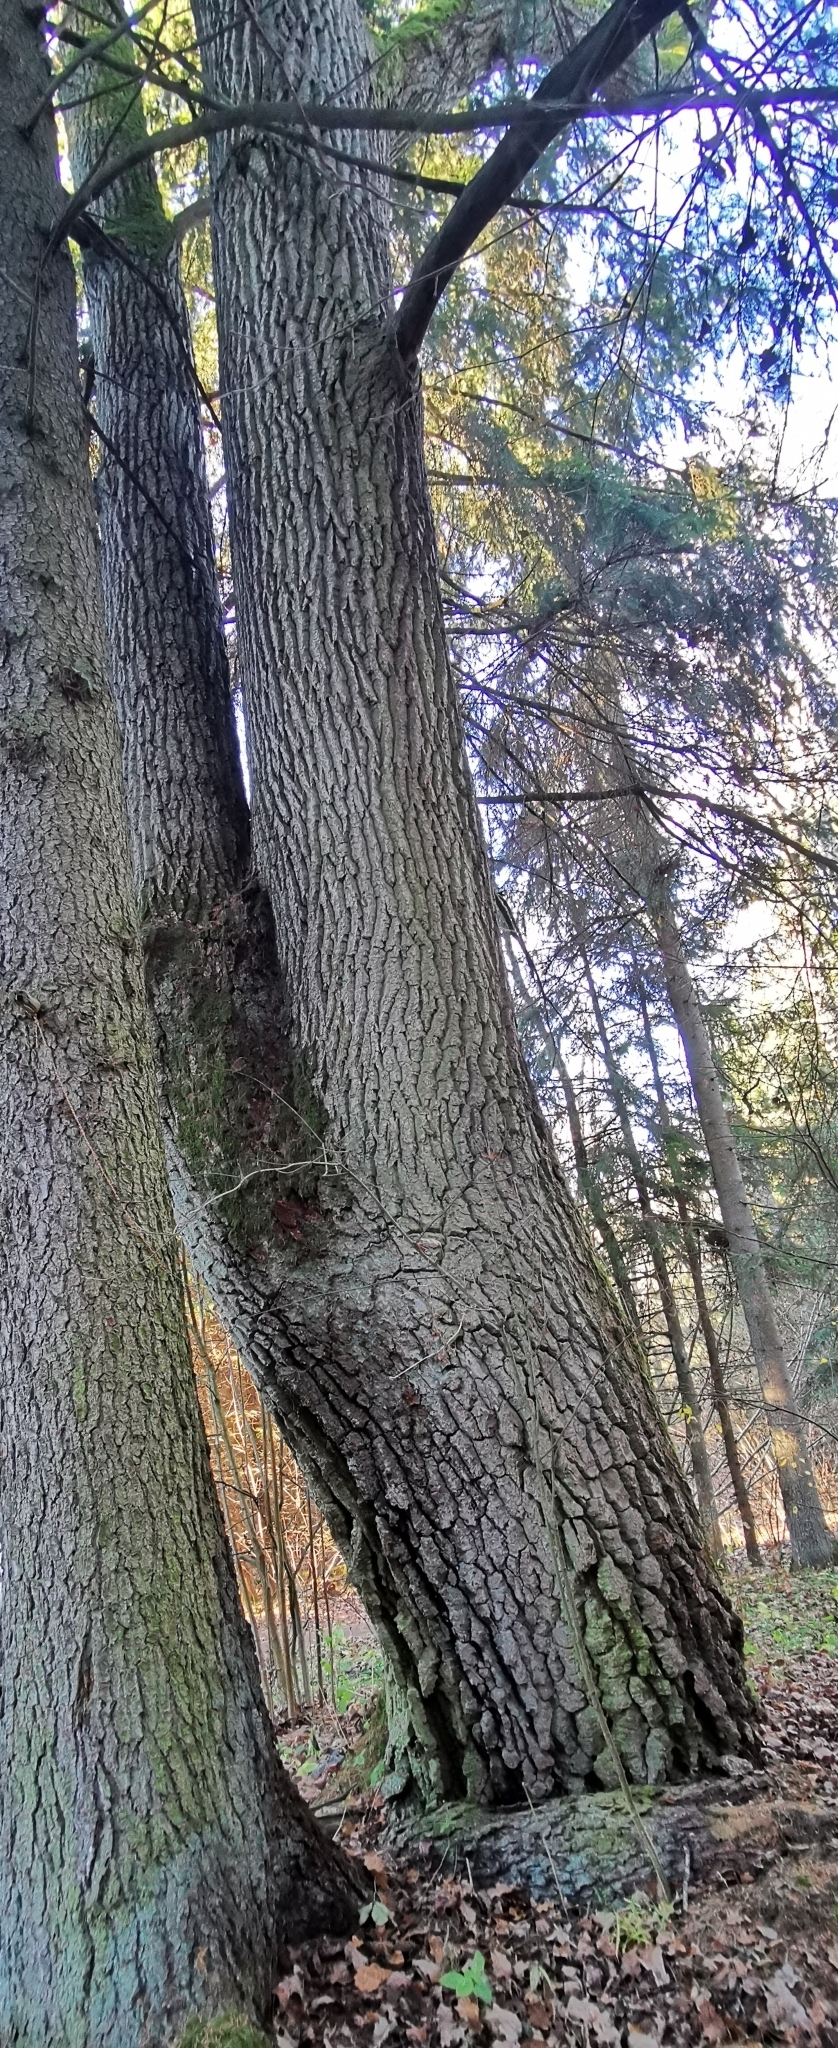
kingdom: Plantae
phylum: Tracheophyta
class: Magnoliopsida
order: Fagales
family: Fagaceae
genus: Quercus
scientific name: Quercus robur
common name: Pedunculate oak
